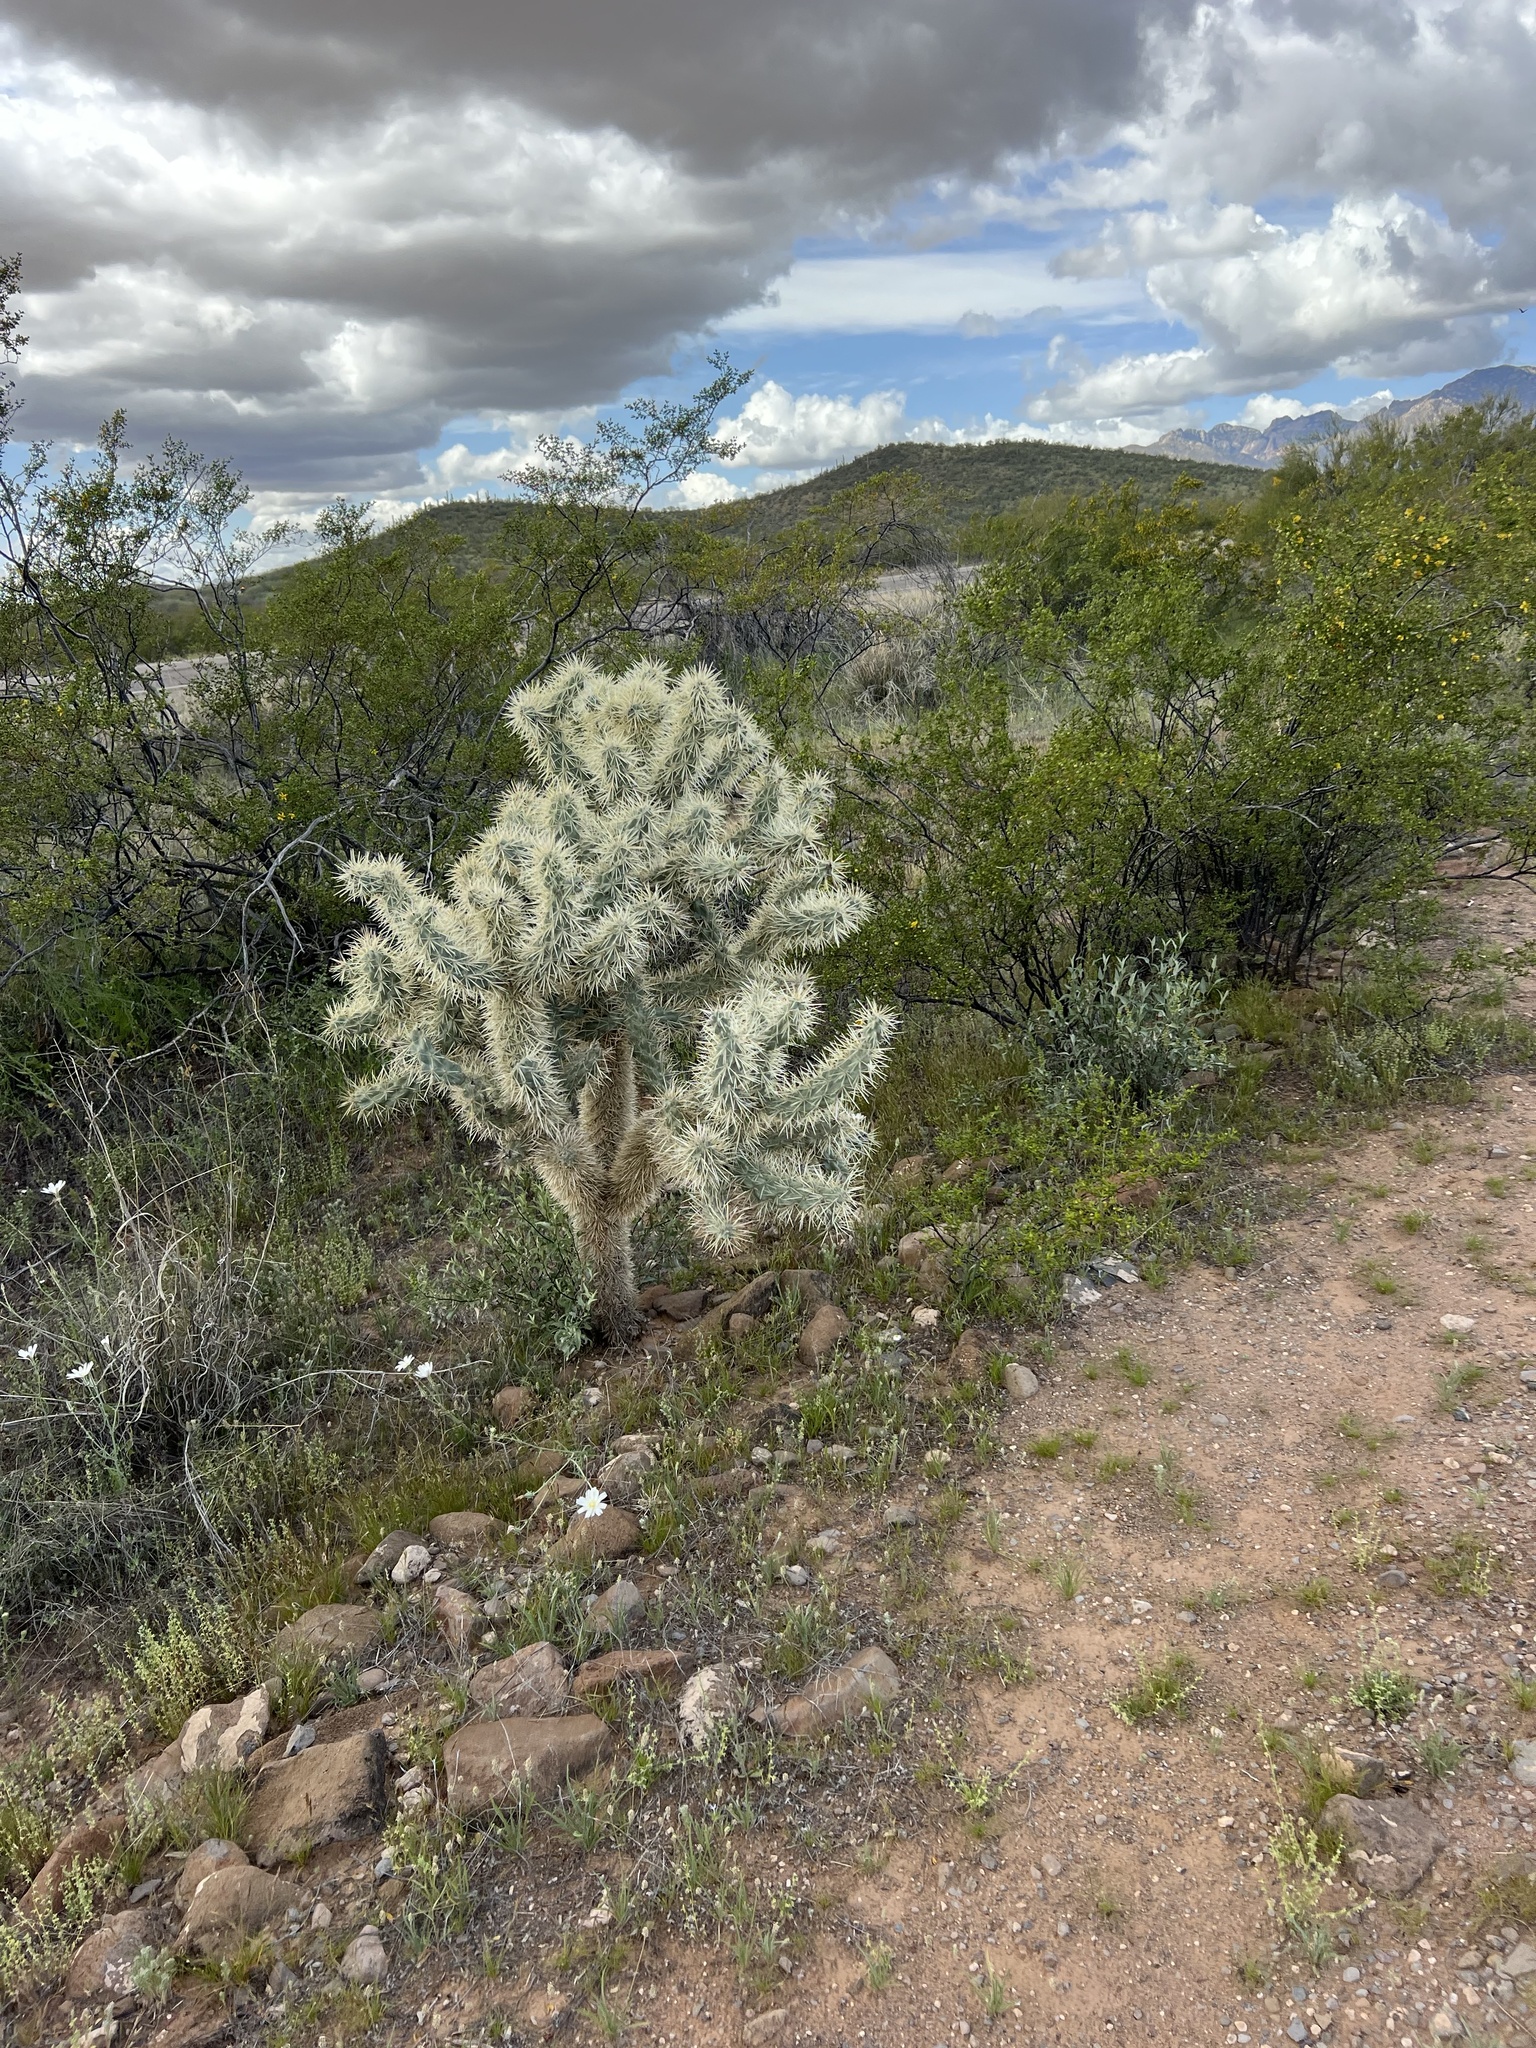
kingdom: Plantae
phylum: Tracheophyta
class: Magnoliopsida
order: Caryophyllales
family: Cactaceae
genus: Cylindropuntia
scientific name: Cylindropuntia kelvinensis
